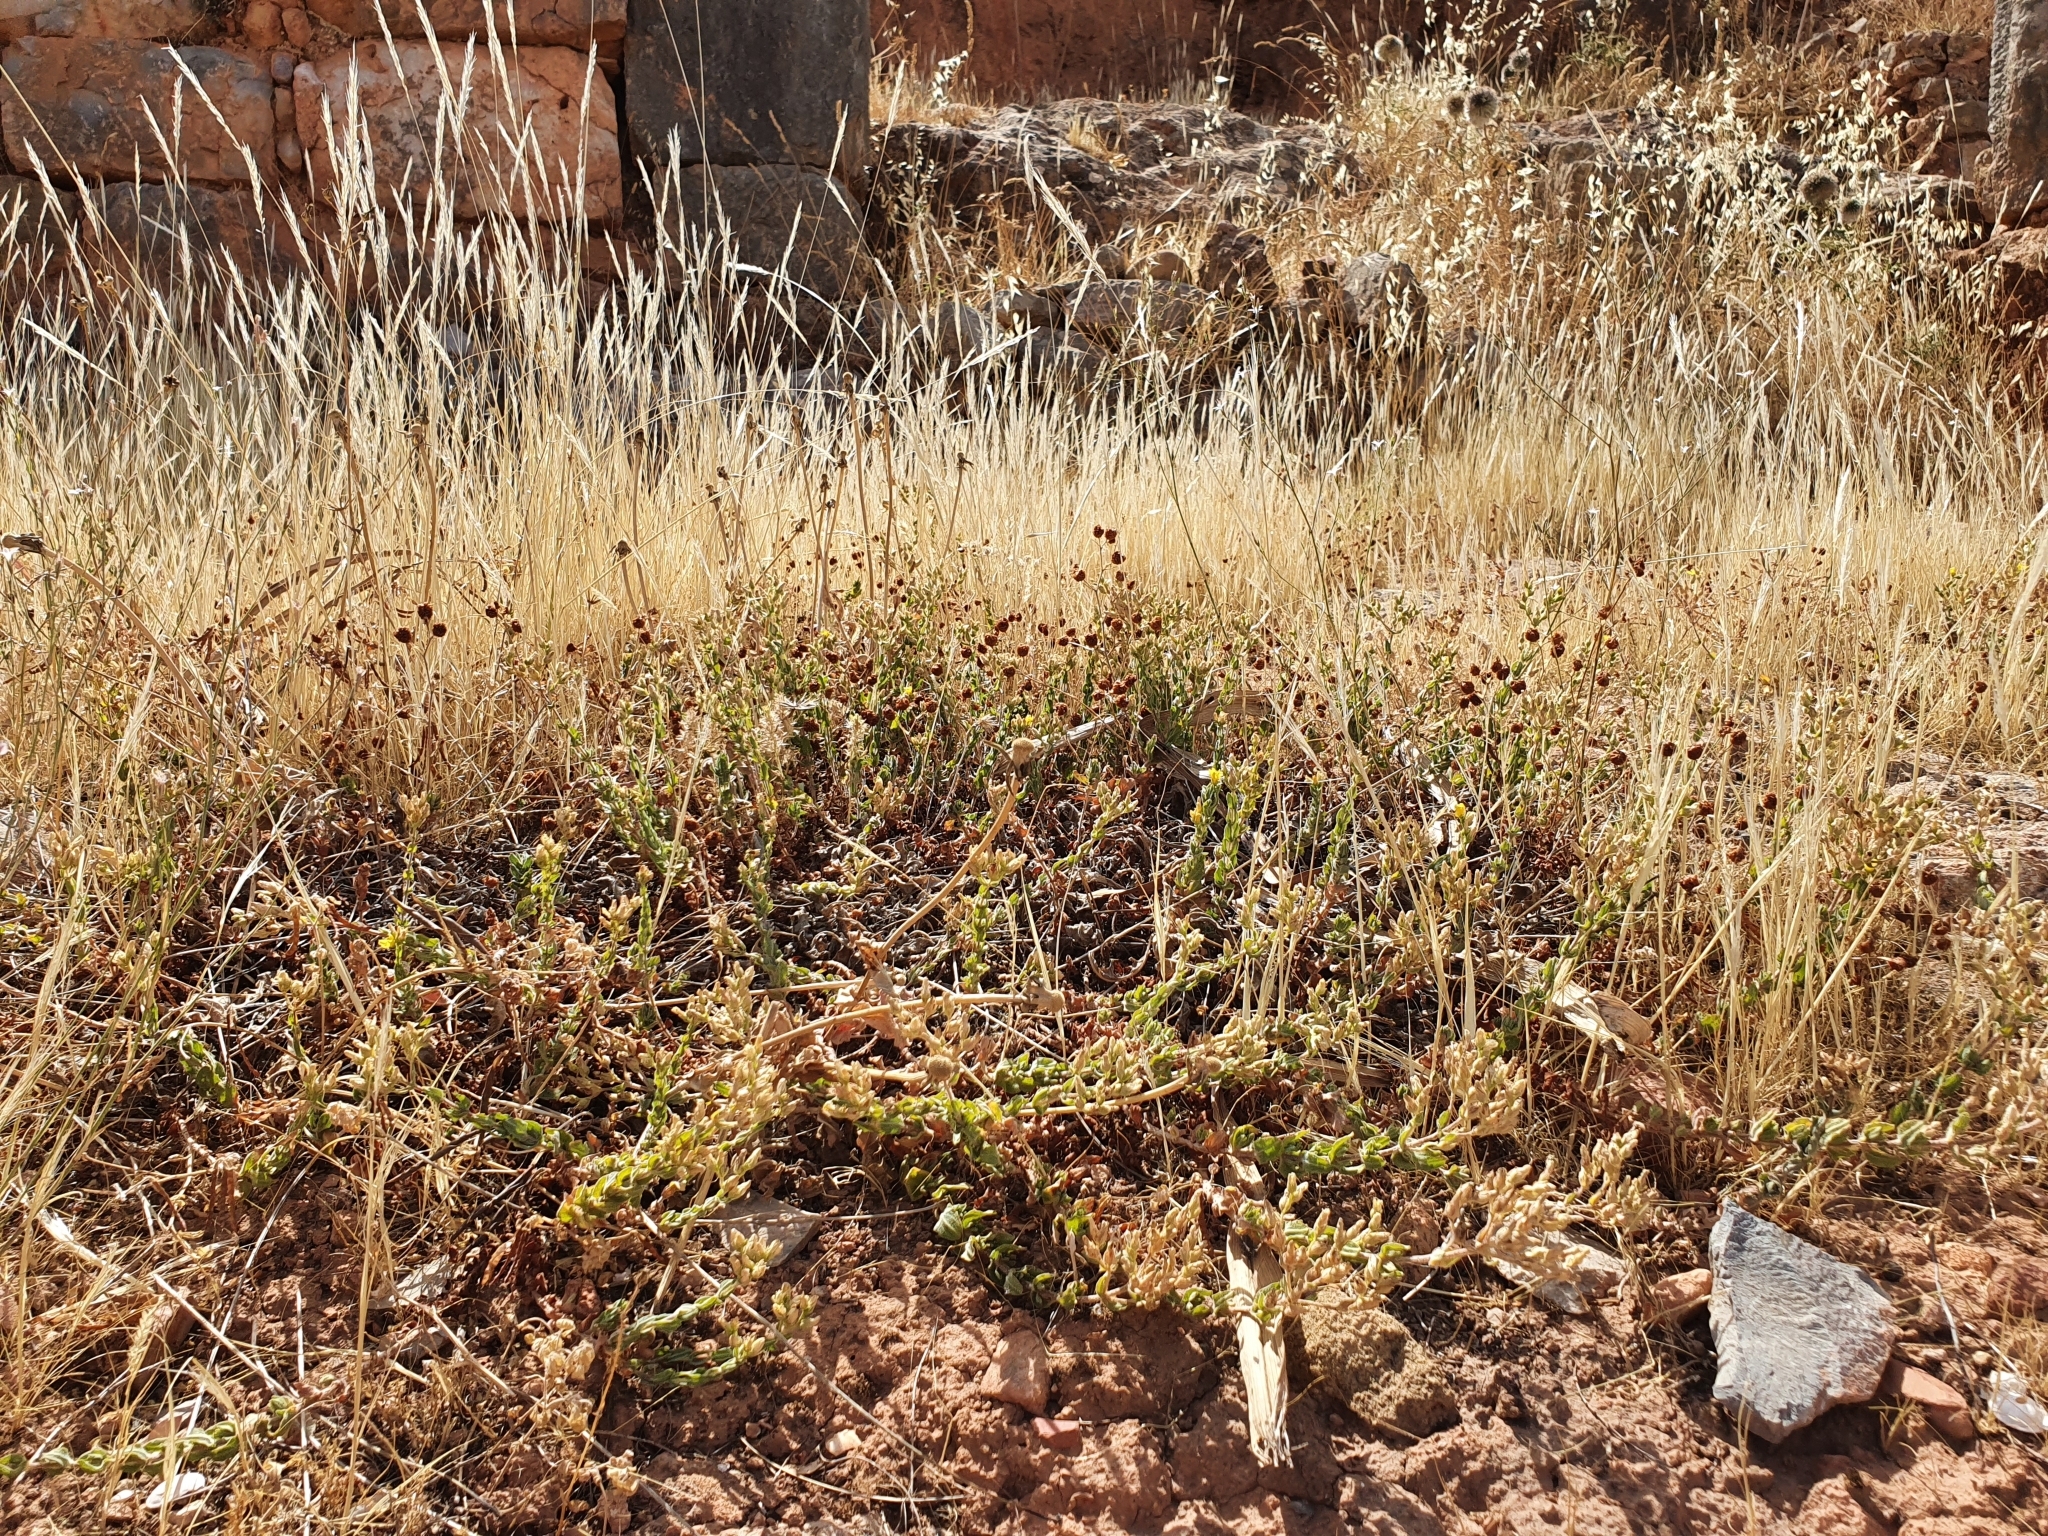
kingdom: Plantae
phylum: Tracheophyta
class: Magnoliopsida
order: Malpighiales
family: Hypericaceae
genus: Hypericum
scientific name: Hypericum pubescens
